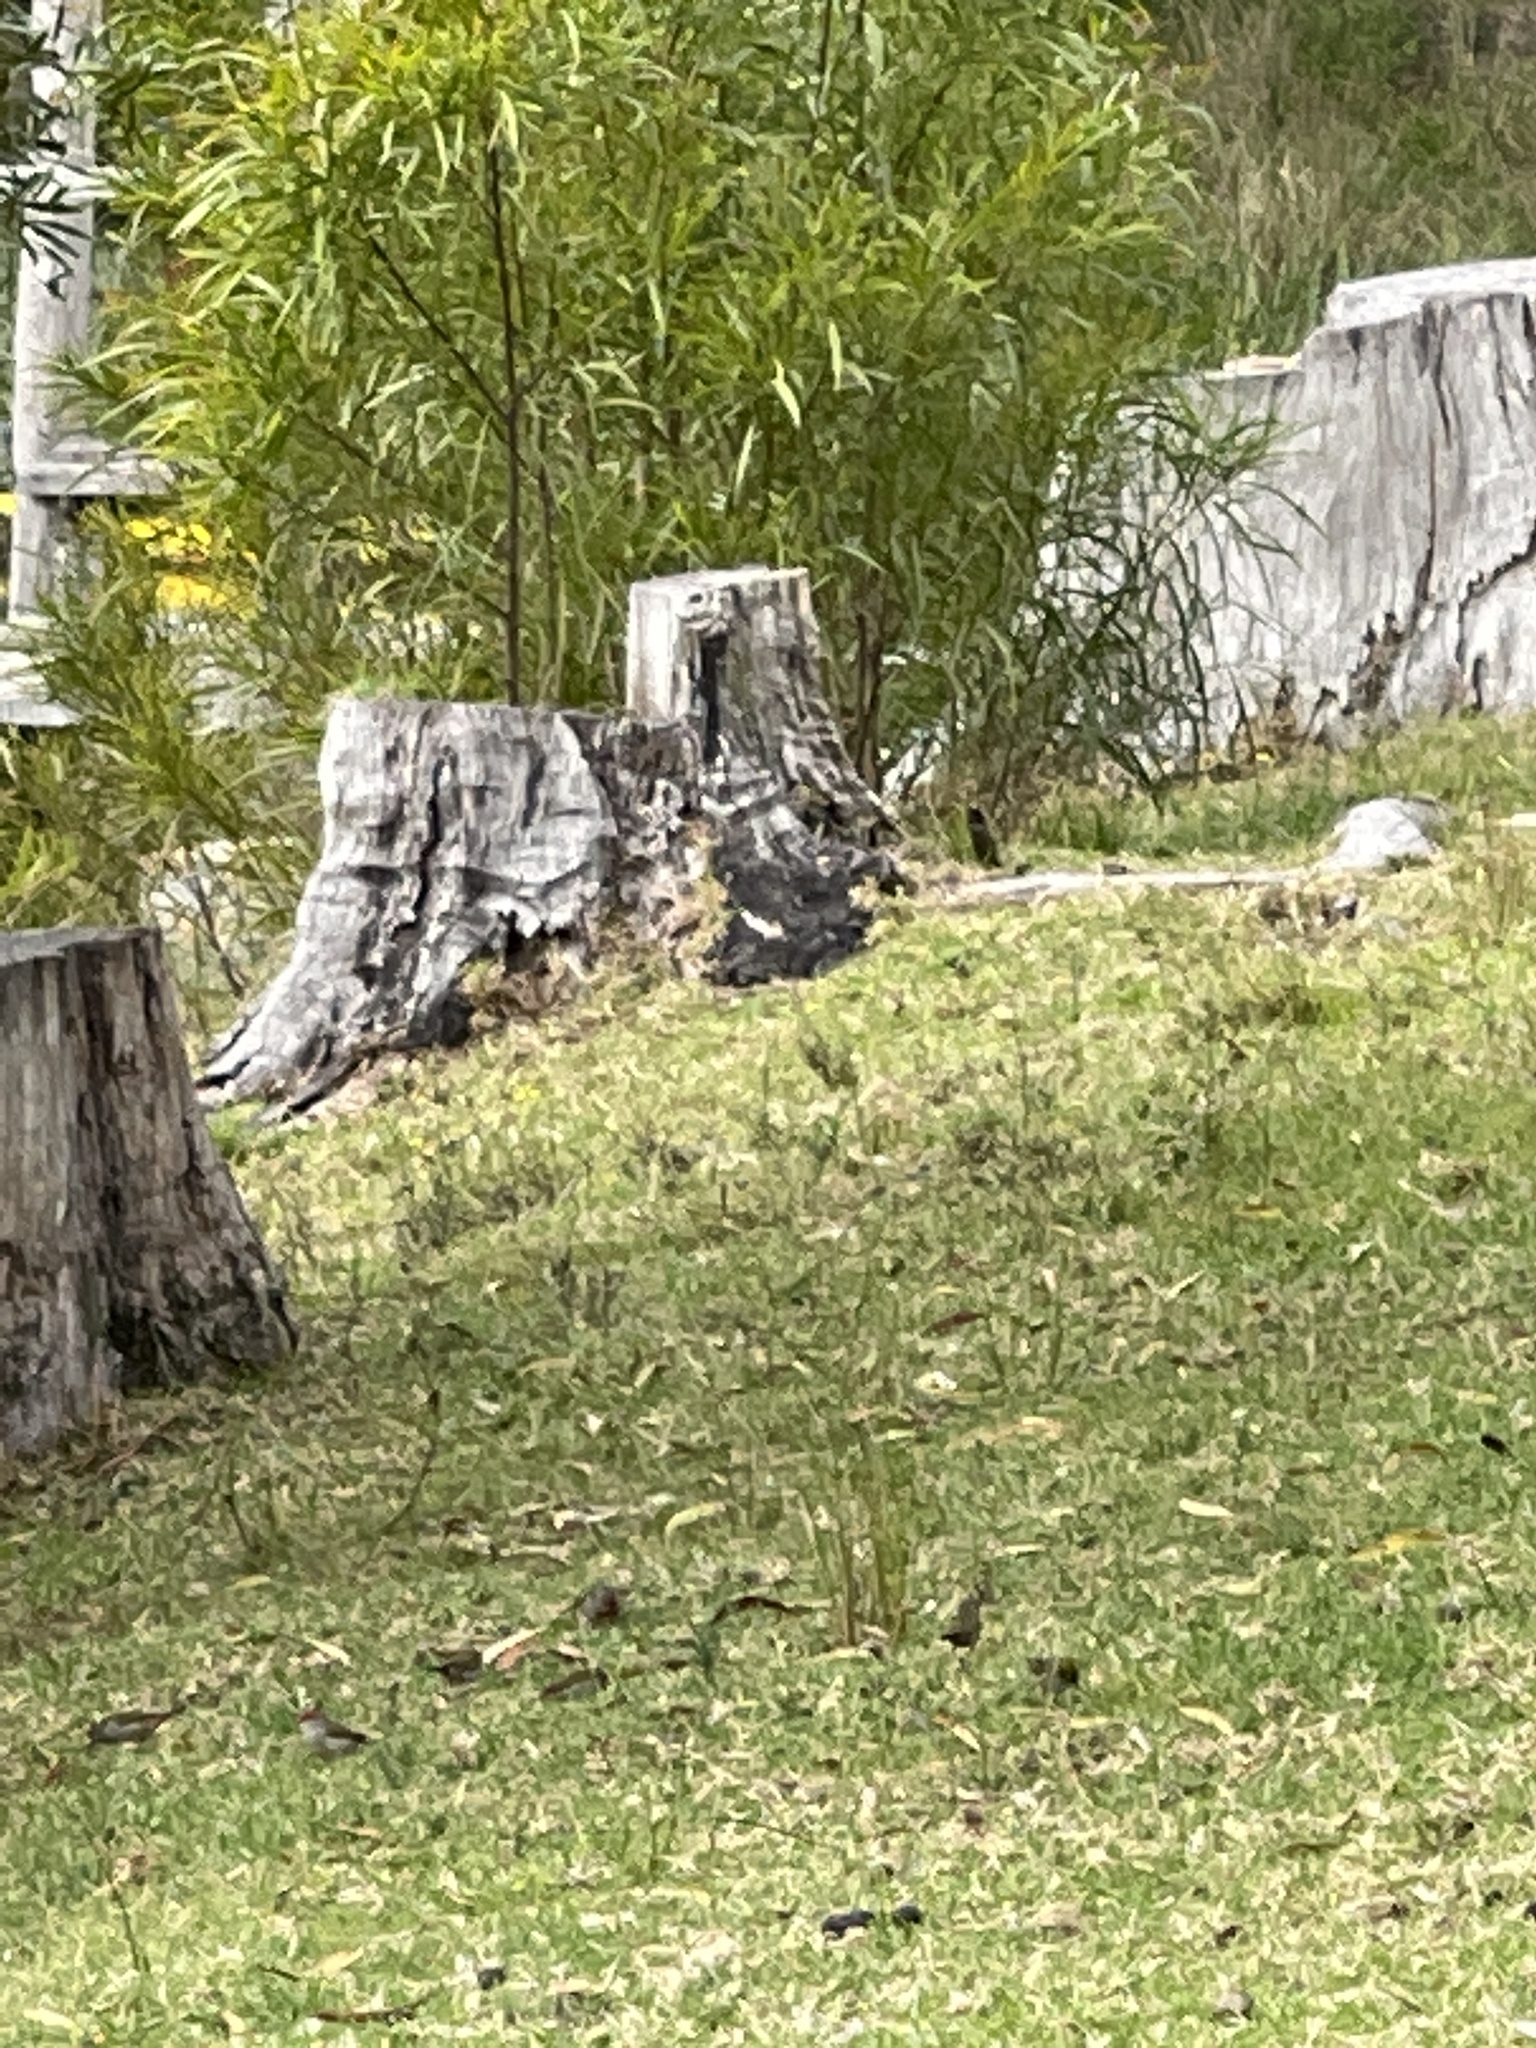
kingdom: Animalia
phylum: Chordata
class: Aves
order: Passeriformes
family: Estrildidae
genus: Neochmia
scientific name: Neochmia temporalis
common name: Red-browed finch
